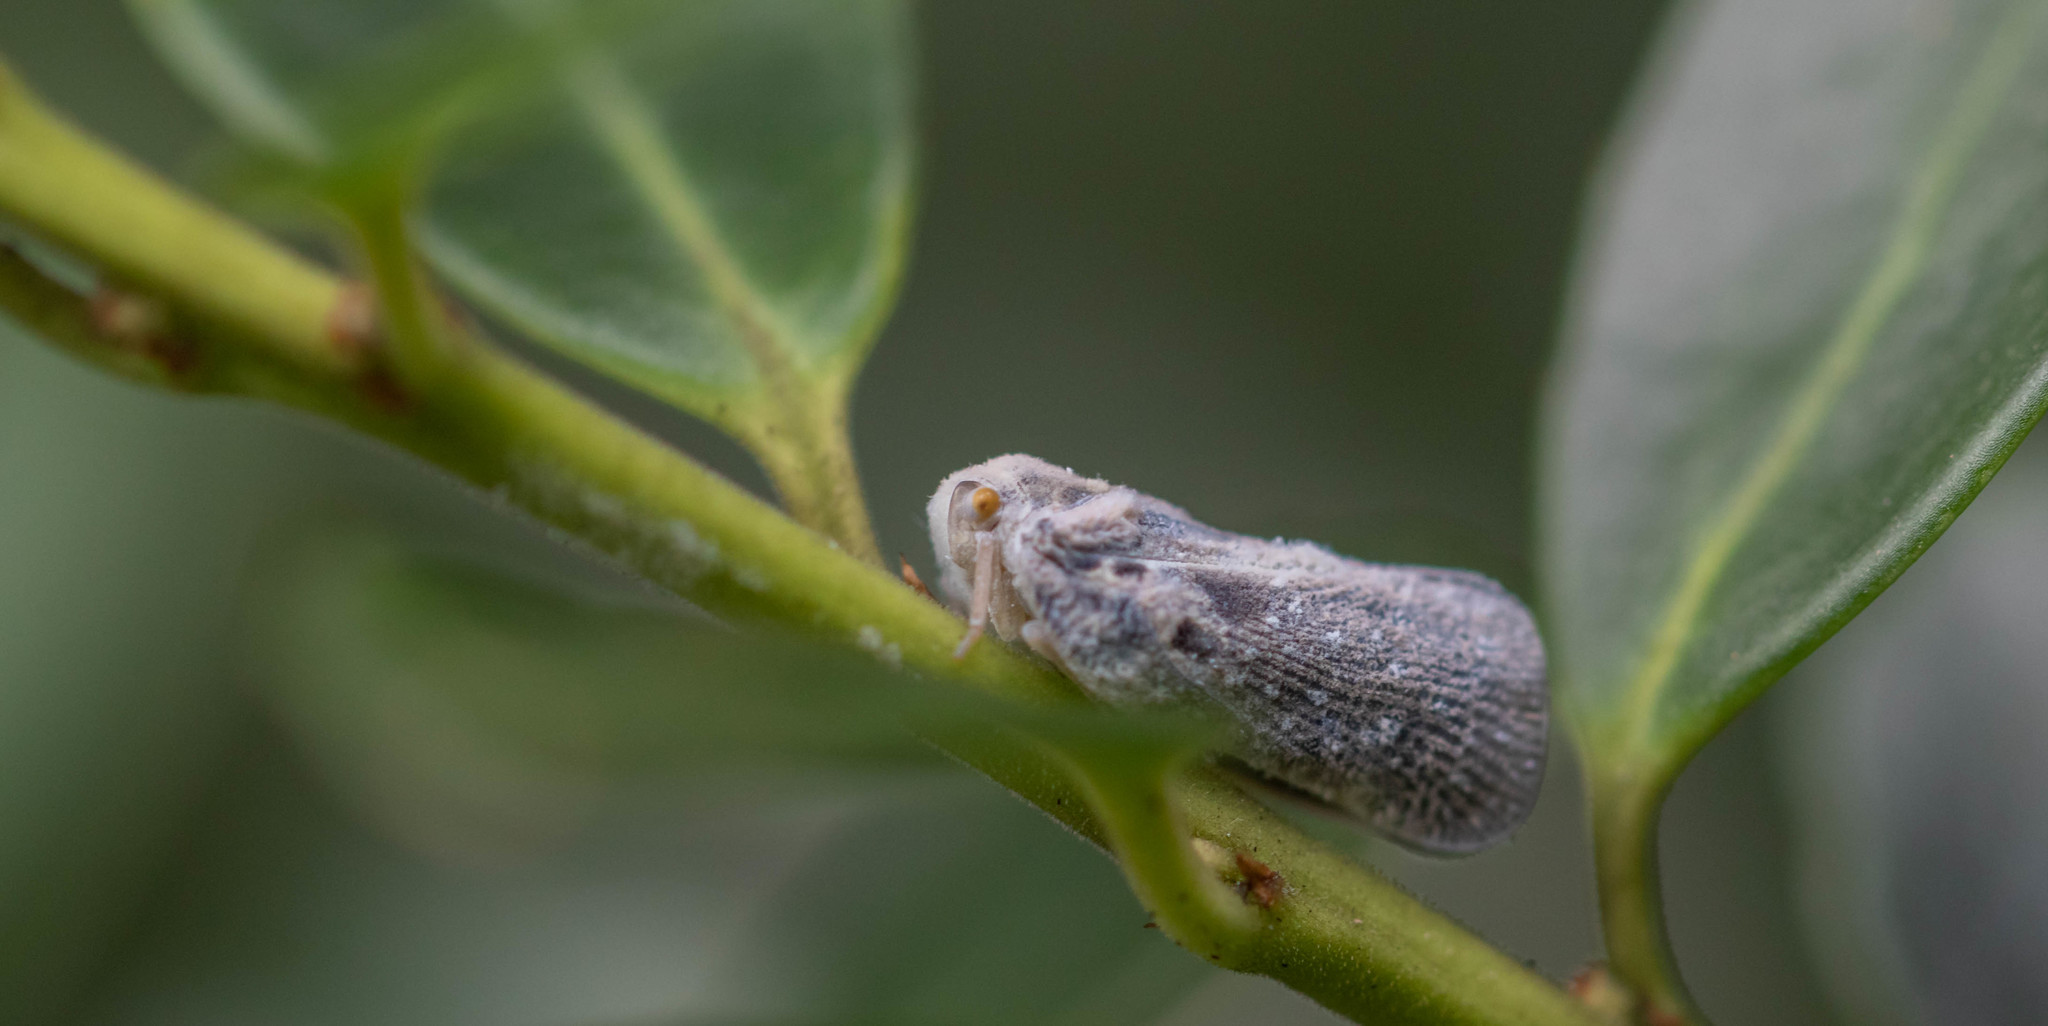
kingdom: Animalia
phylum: Arthropoda
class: Insecta
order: Hemiptera
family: Flatidae
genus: Metcalfa
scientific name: Metcalfa pruinosa
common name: Citrus flatid planthopper
